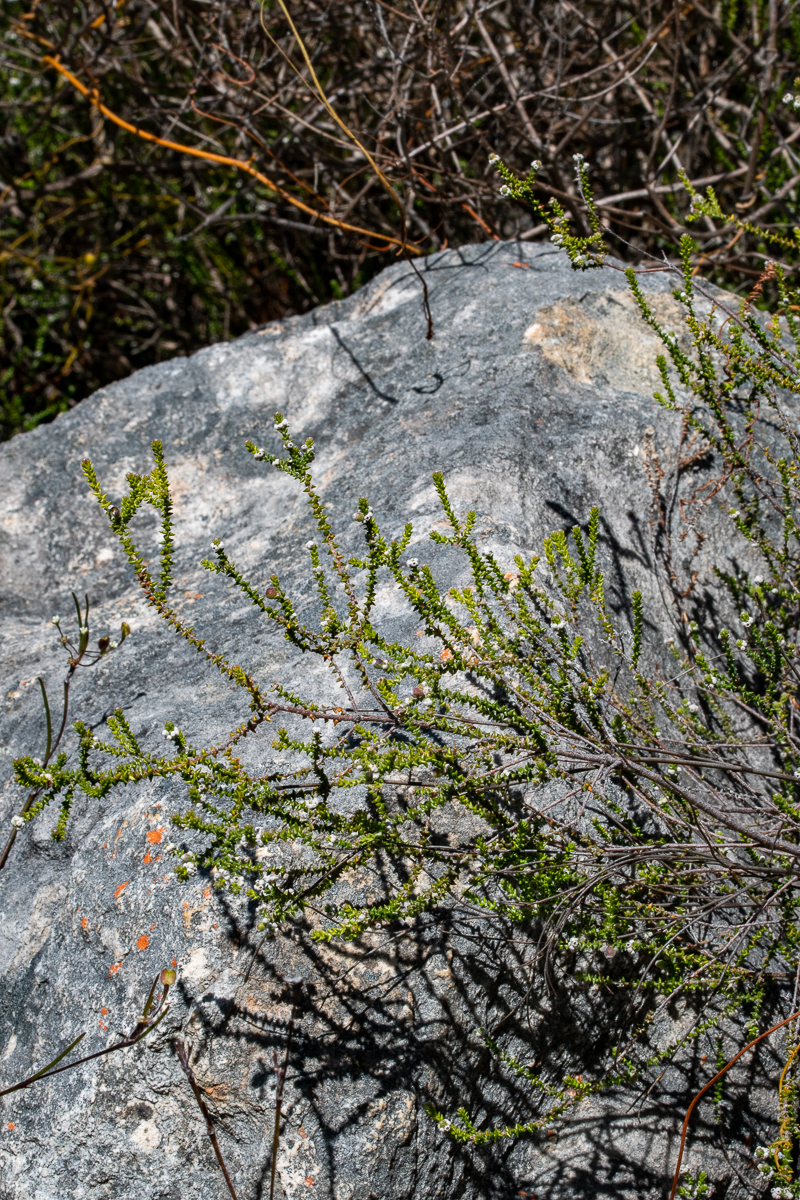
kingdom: Plantae
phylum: Tracheophyta
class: Magnoliopsida
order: Rosales
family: Rhamnaceae
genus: Phylica
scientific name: Phylica humilis
